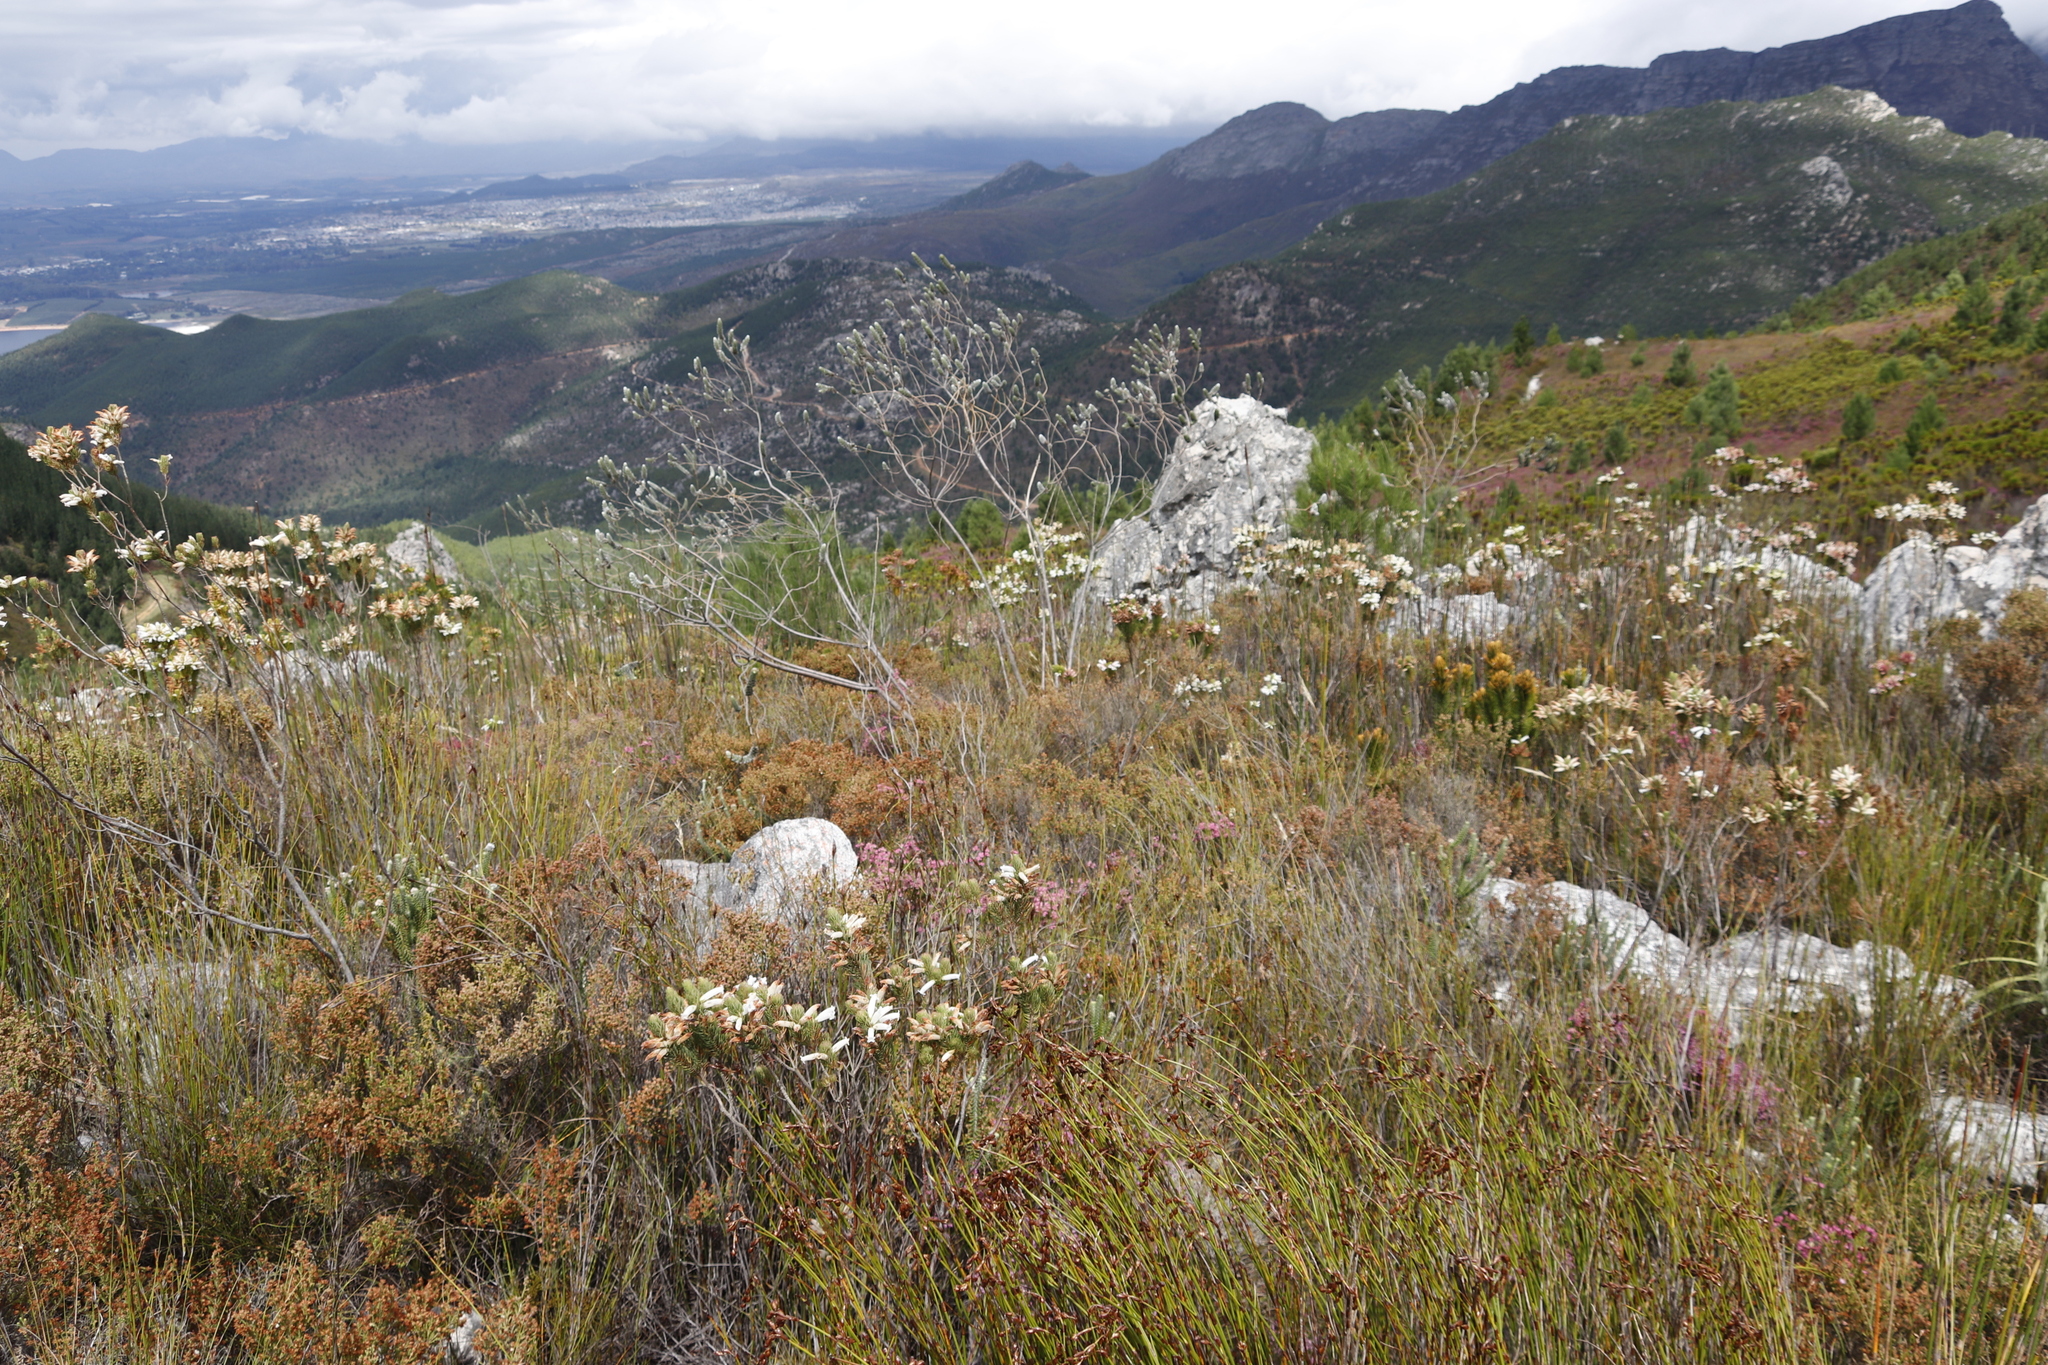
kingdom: Plantae
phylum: Tracheophyta
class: Magnoliopsida
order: Ericales
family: Ericaceae
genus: Erica
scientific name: Erica viscaria
